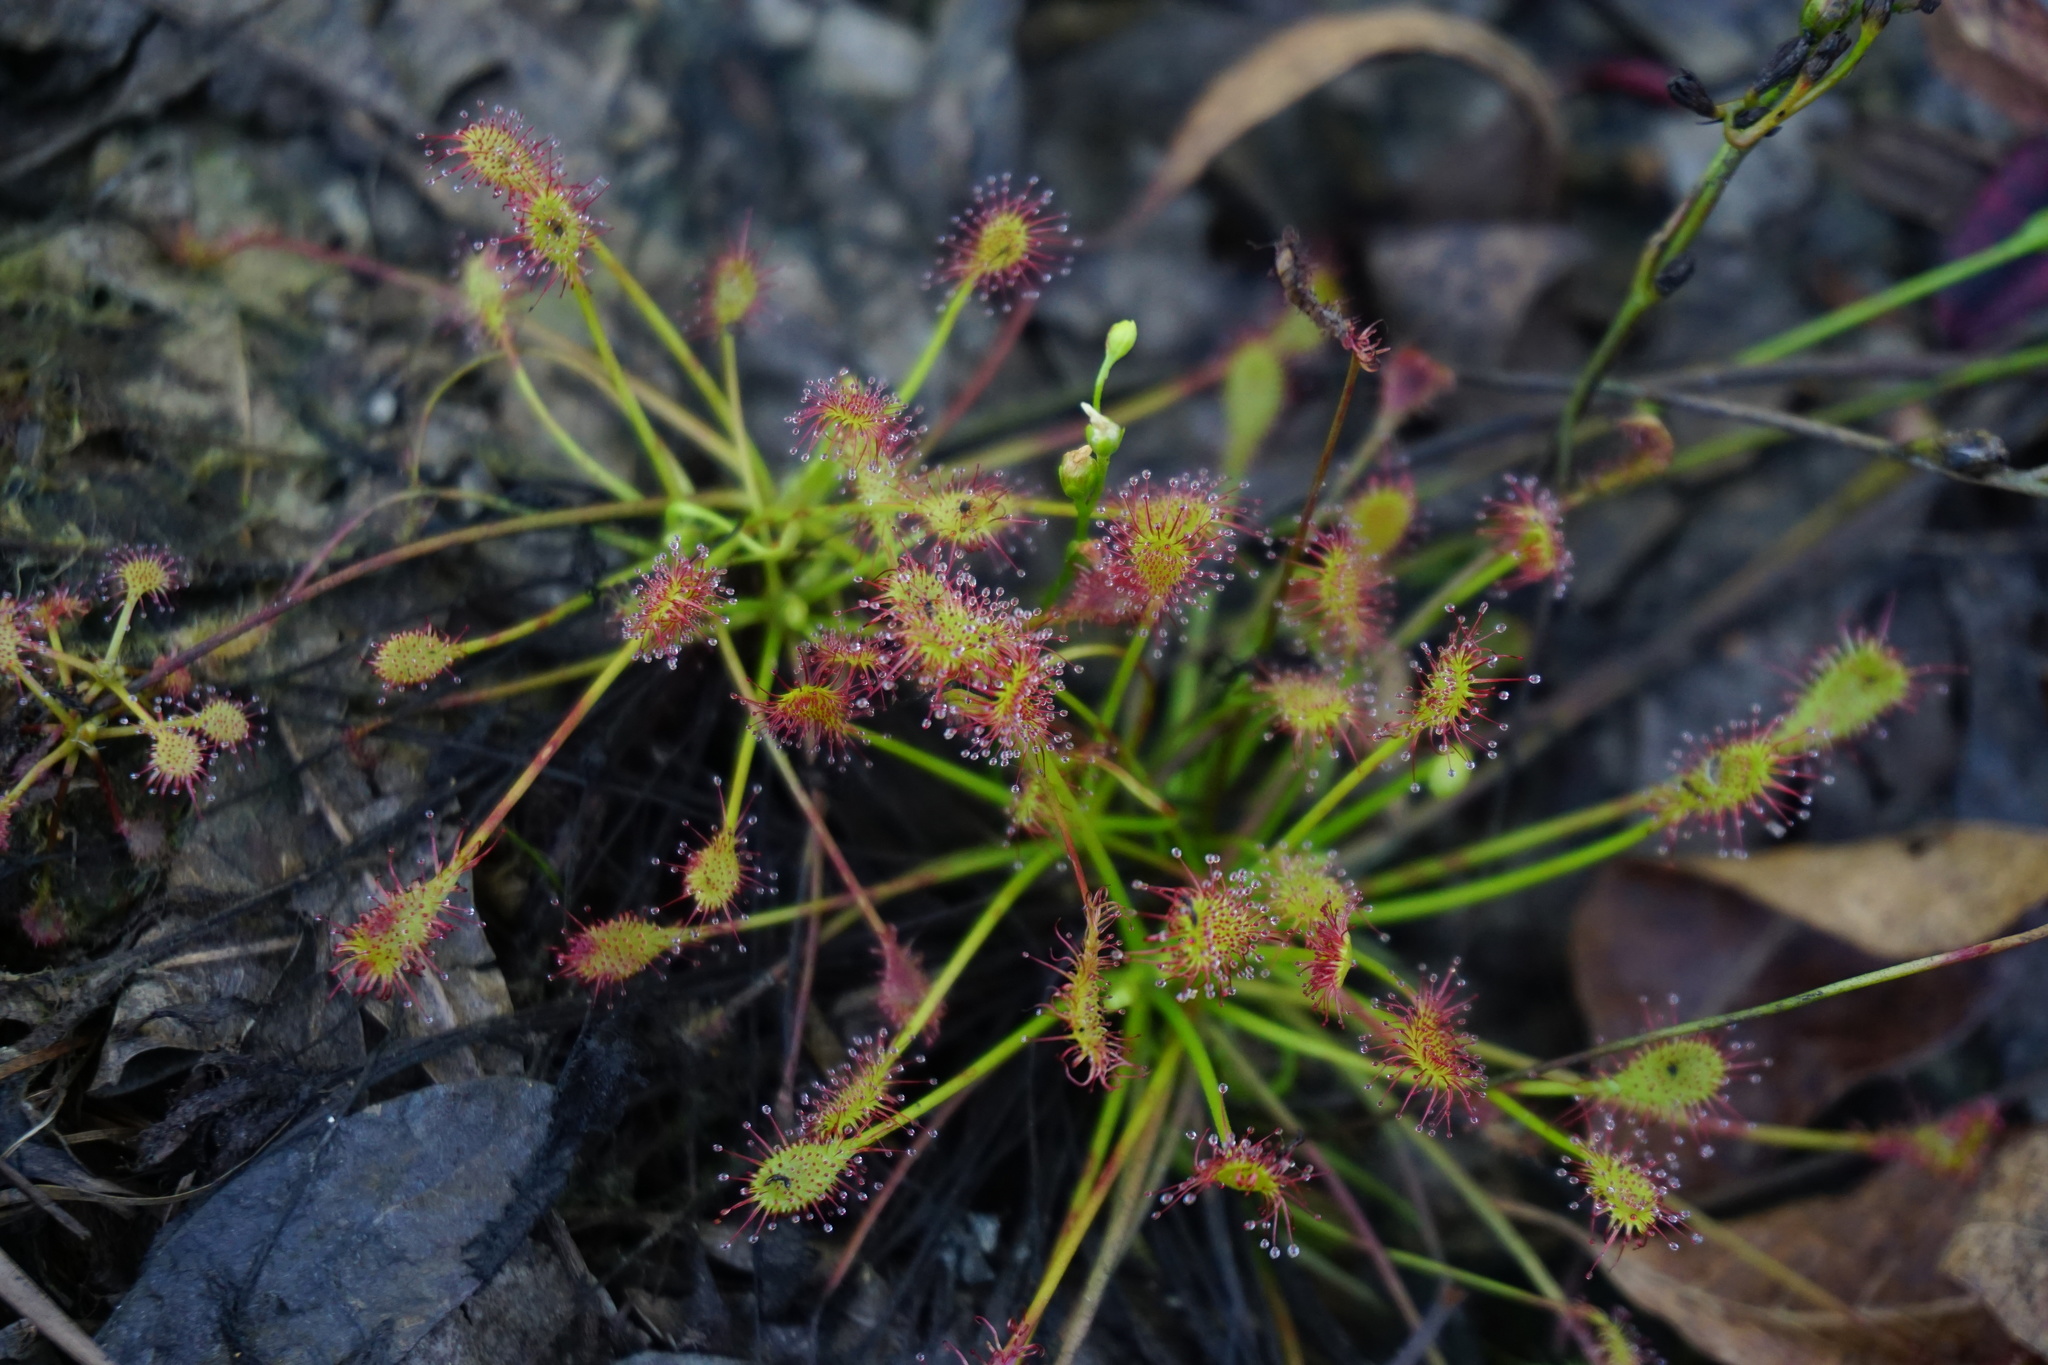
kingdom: Plantae
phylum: Tracheophyta
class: Magnoliopsida
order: Caryophyllales
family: Droseraceae
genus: Drosera
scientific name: Drosera intermedia
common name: Oblong-leaved sundew
